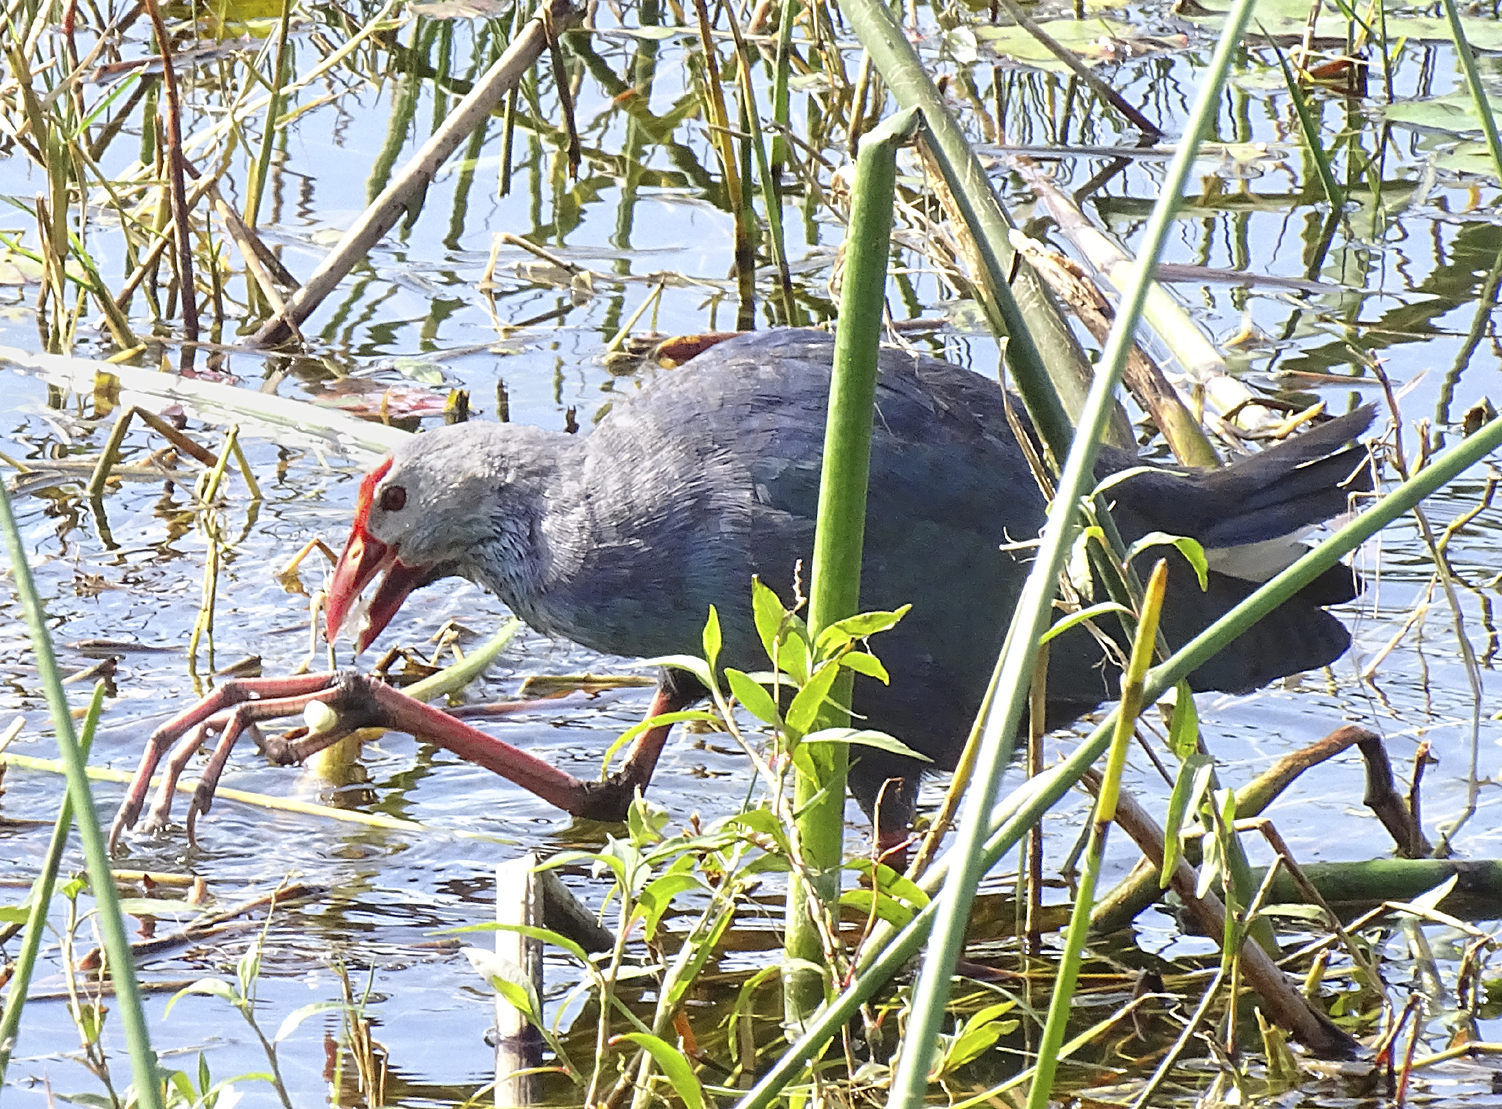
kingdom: Animalia
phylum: Chordata
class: Aves
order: Gruiformes
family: Rallidae
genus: Porphyrio
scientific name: Porphyrio porphyrio
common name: Purple swamphen
